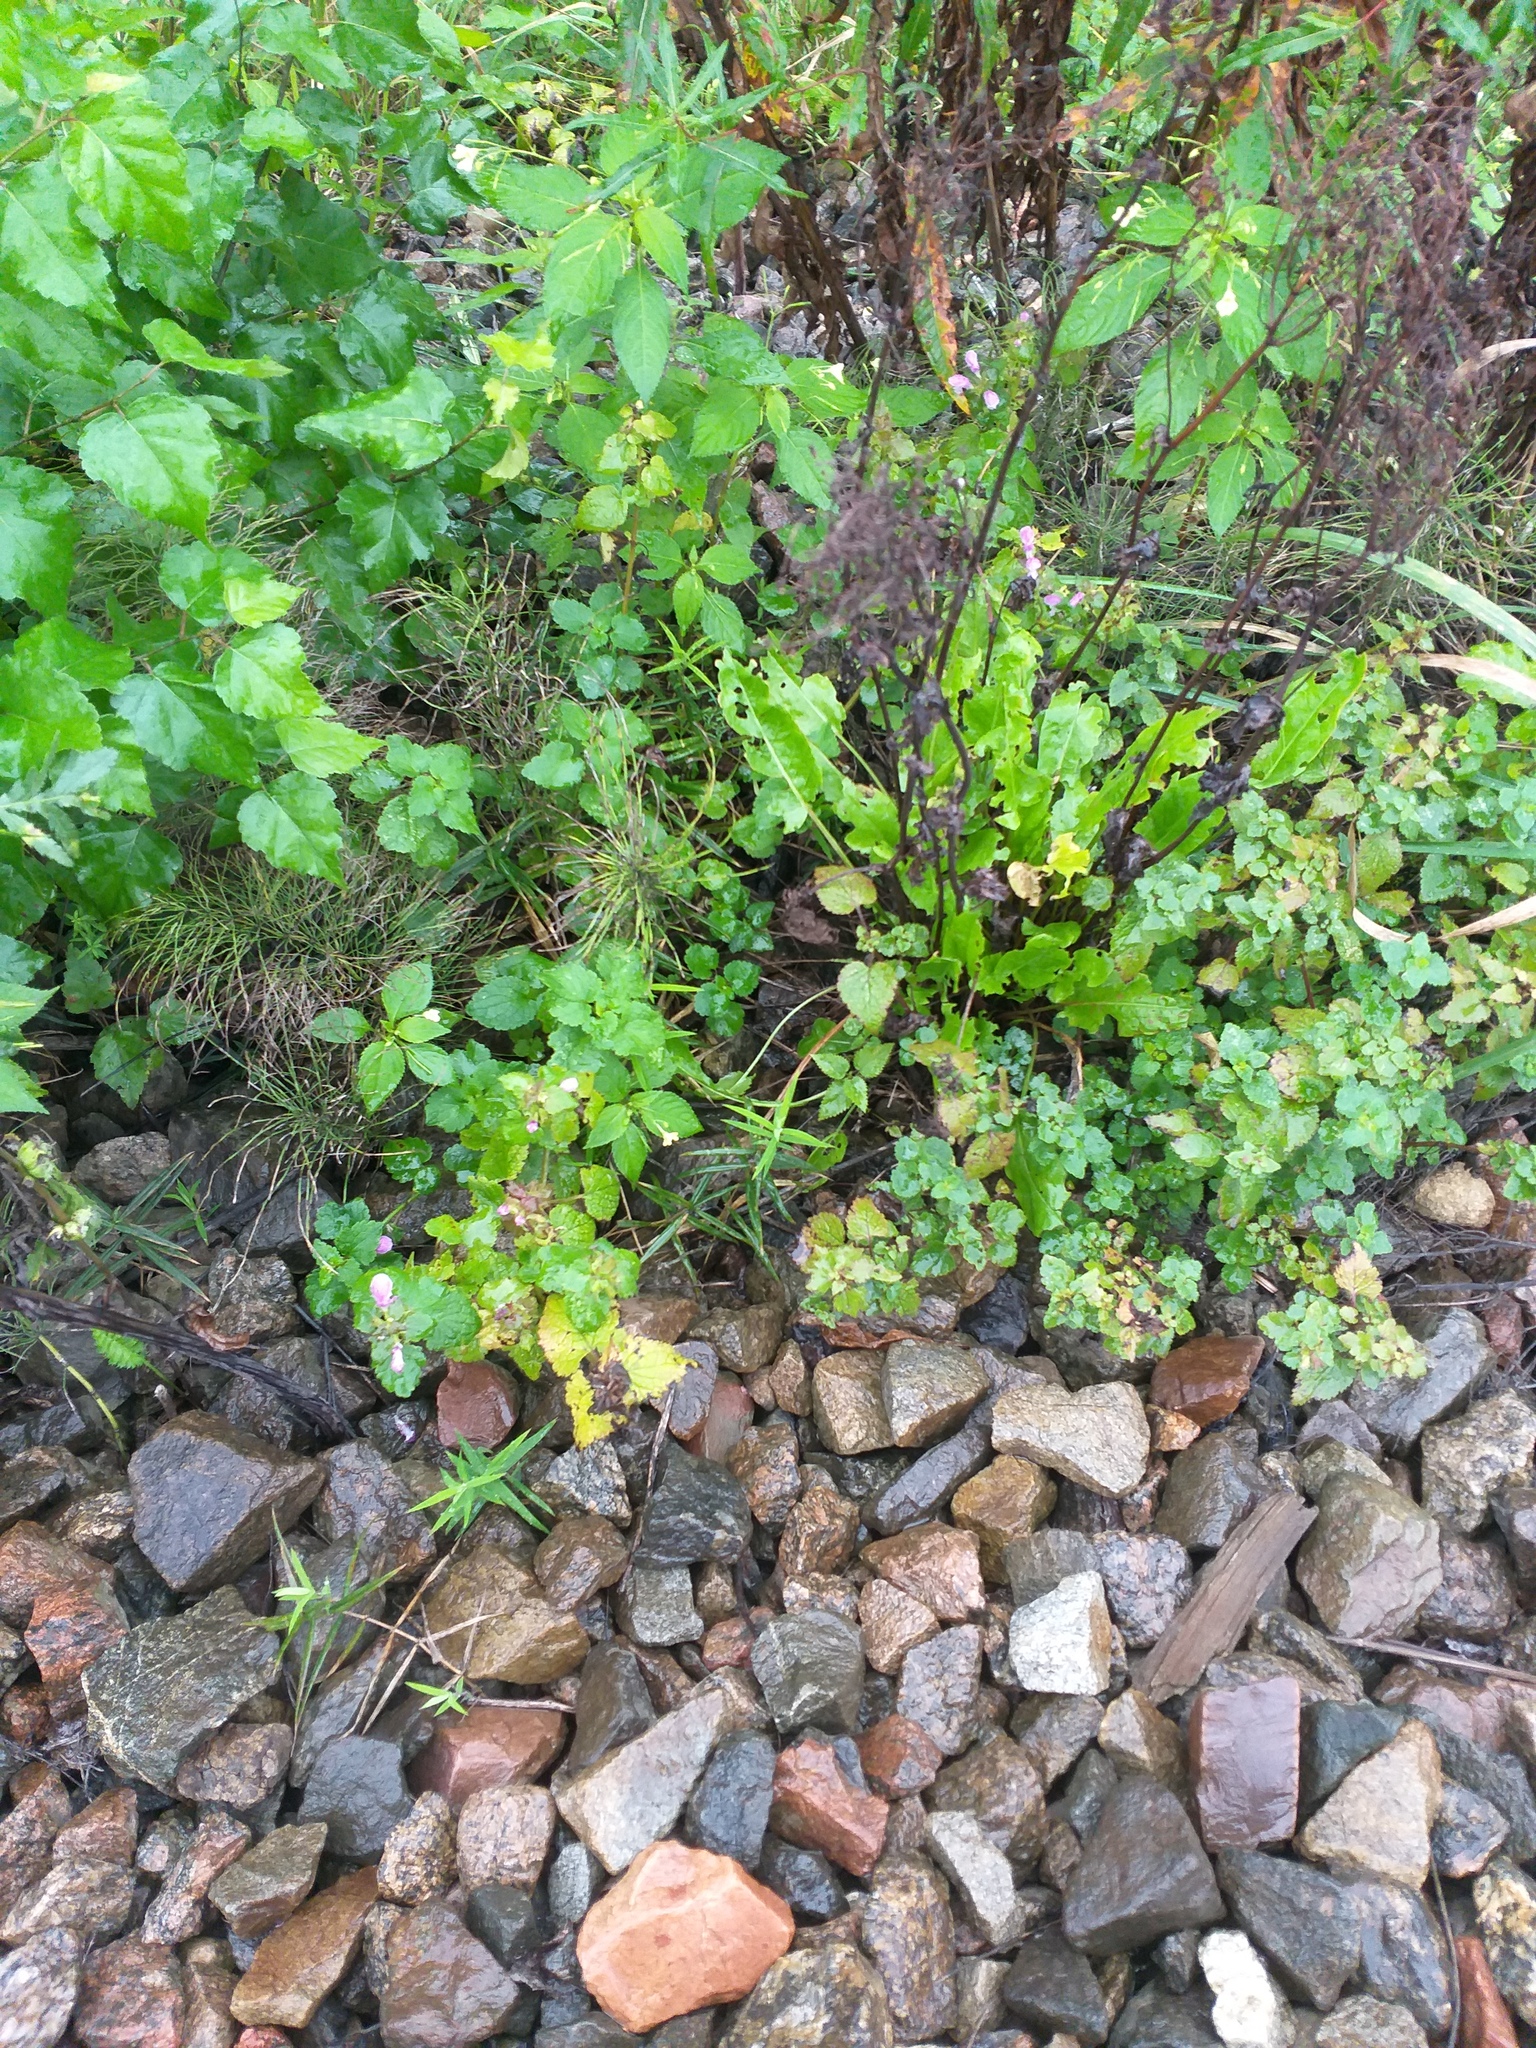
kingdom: Plantae
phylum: Tracheophyta
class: Magnoliopsida
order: Lamiales
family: Lamiaceae
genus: Lamium
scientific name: Lamium maculatum
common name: Spotted dead-nettle
